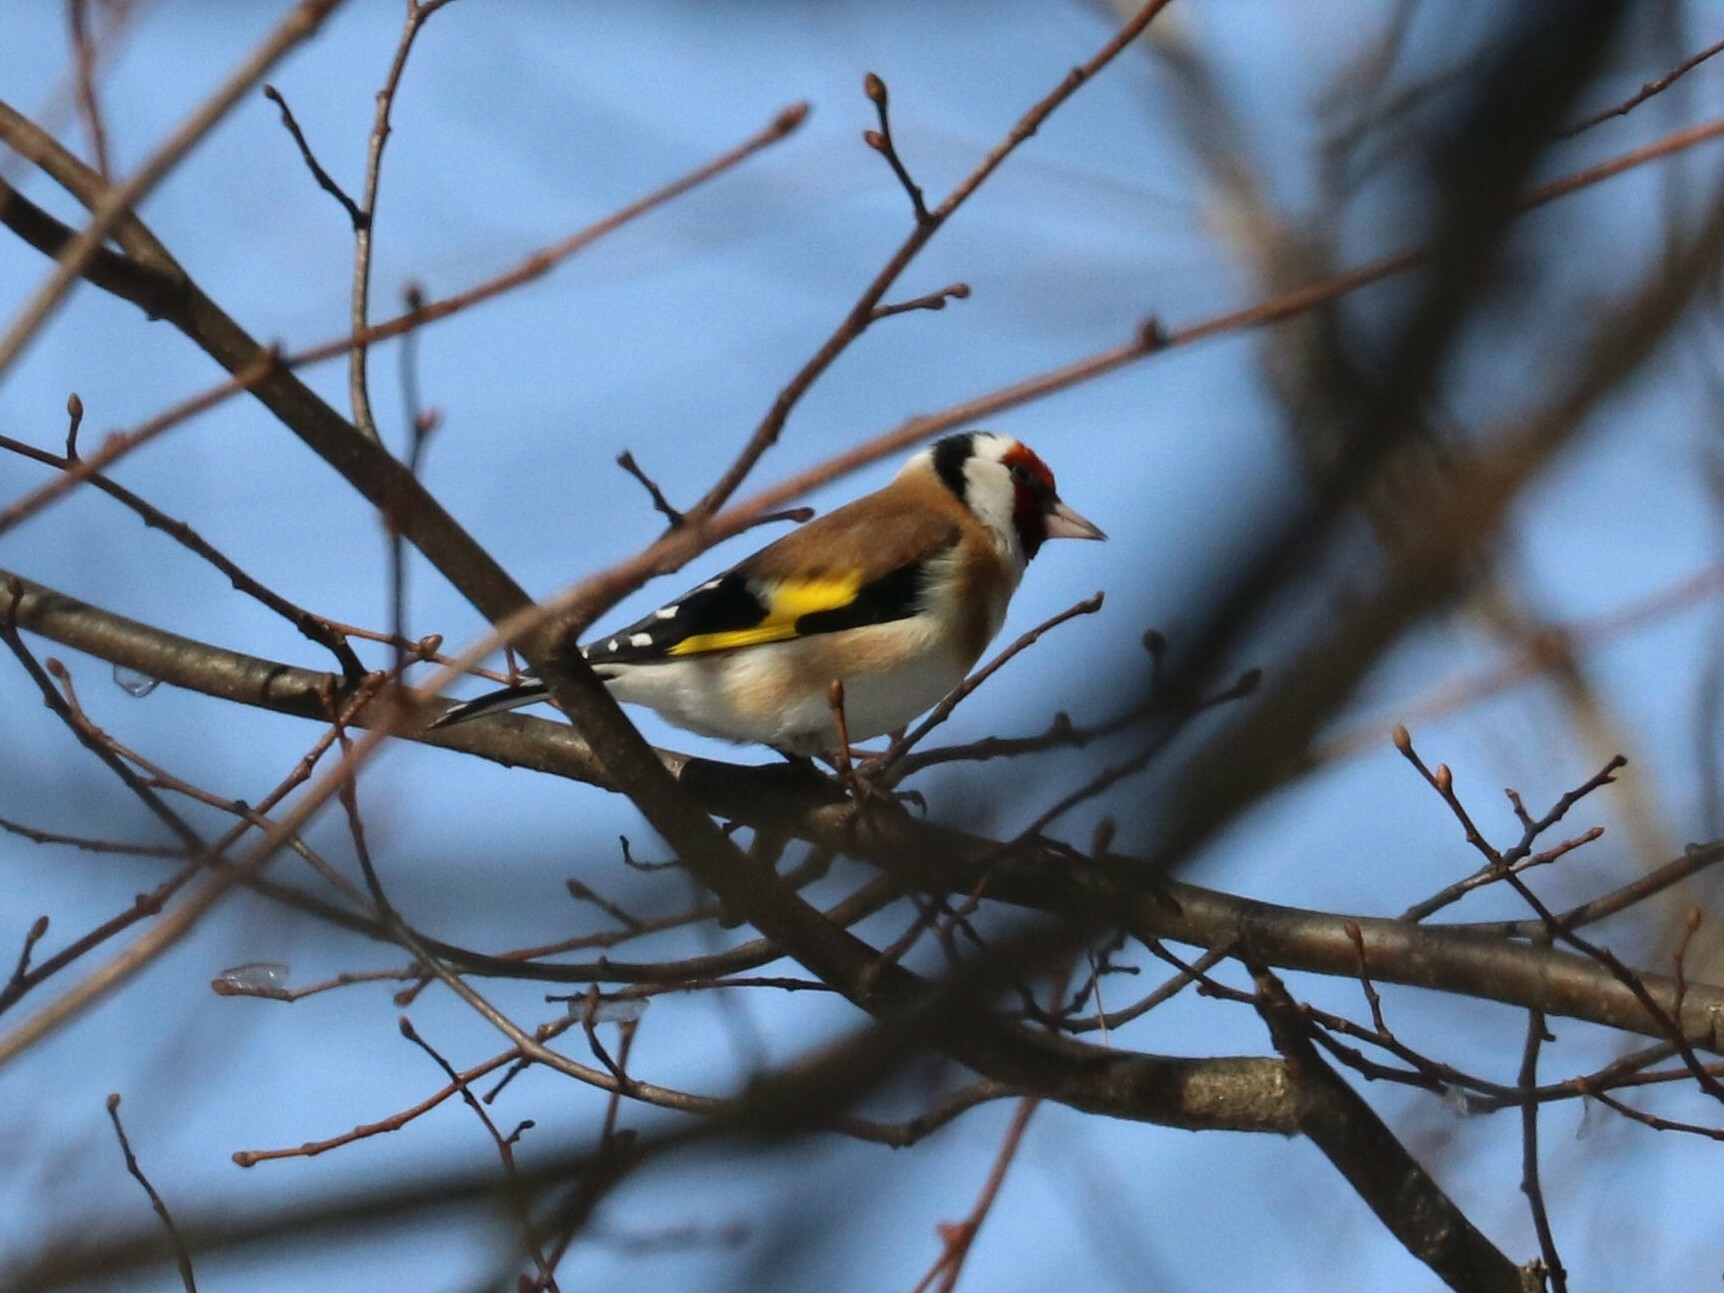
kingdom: Animalia
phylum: Chordata
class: Aves
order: Passeriformes
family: Fringillidae
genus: Carduelis
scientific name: Carduelis carduelis
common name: European goldfinch
